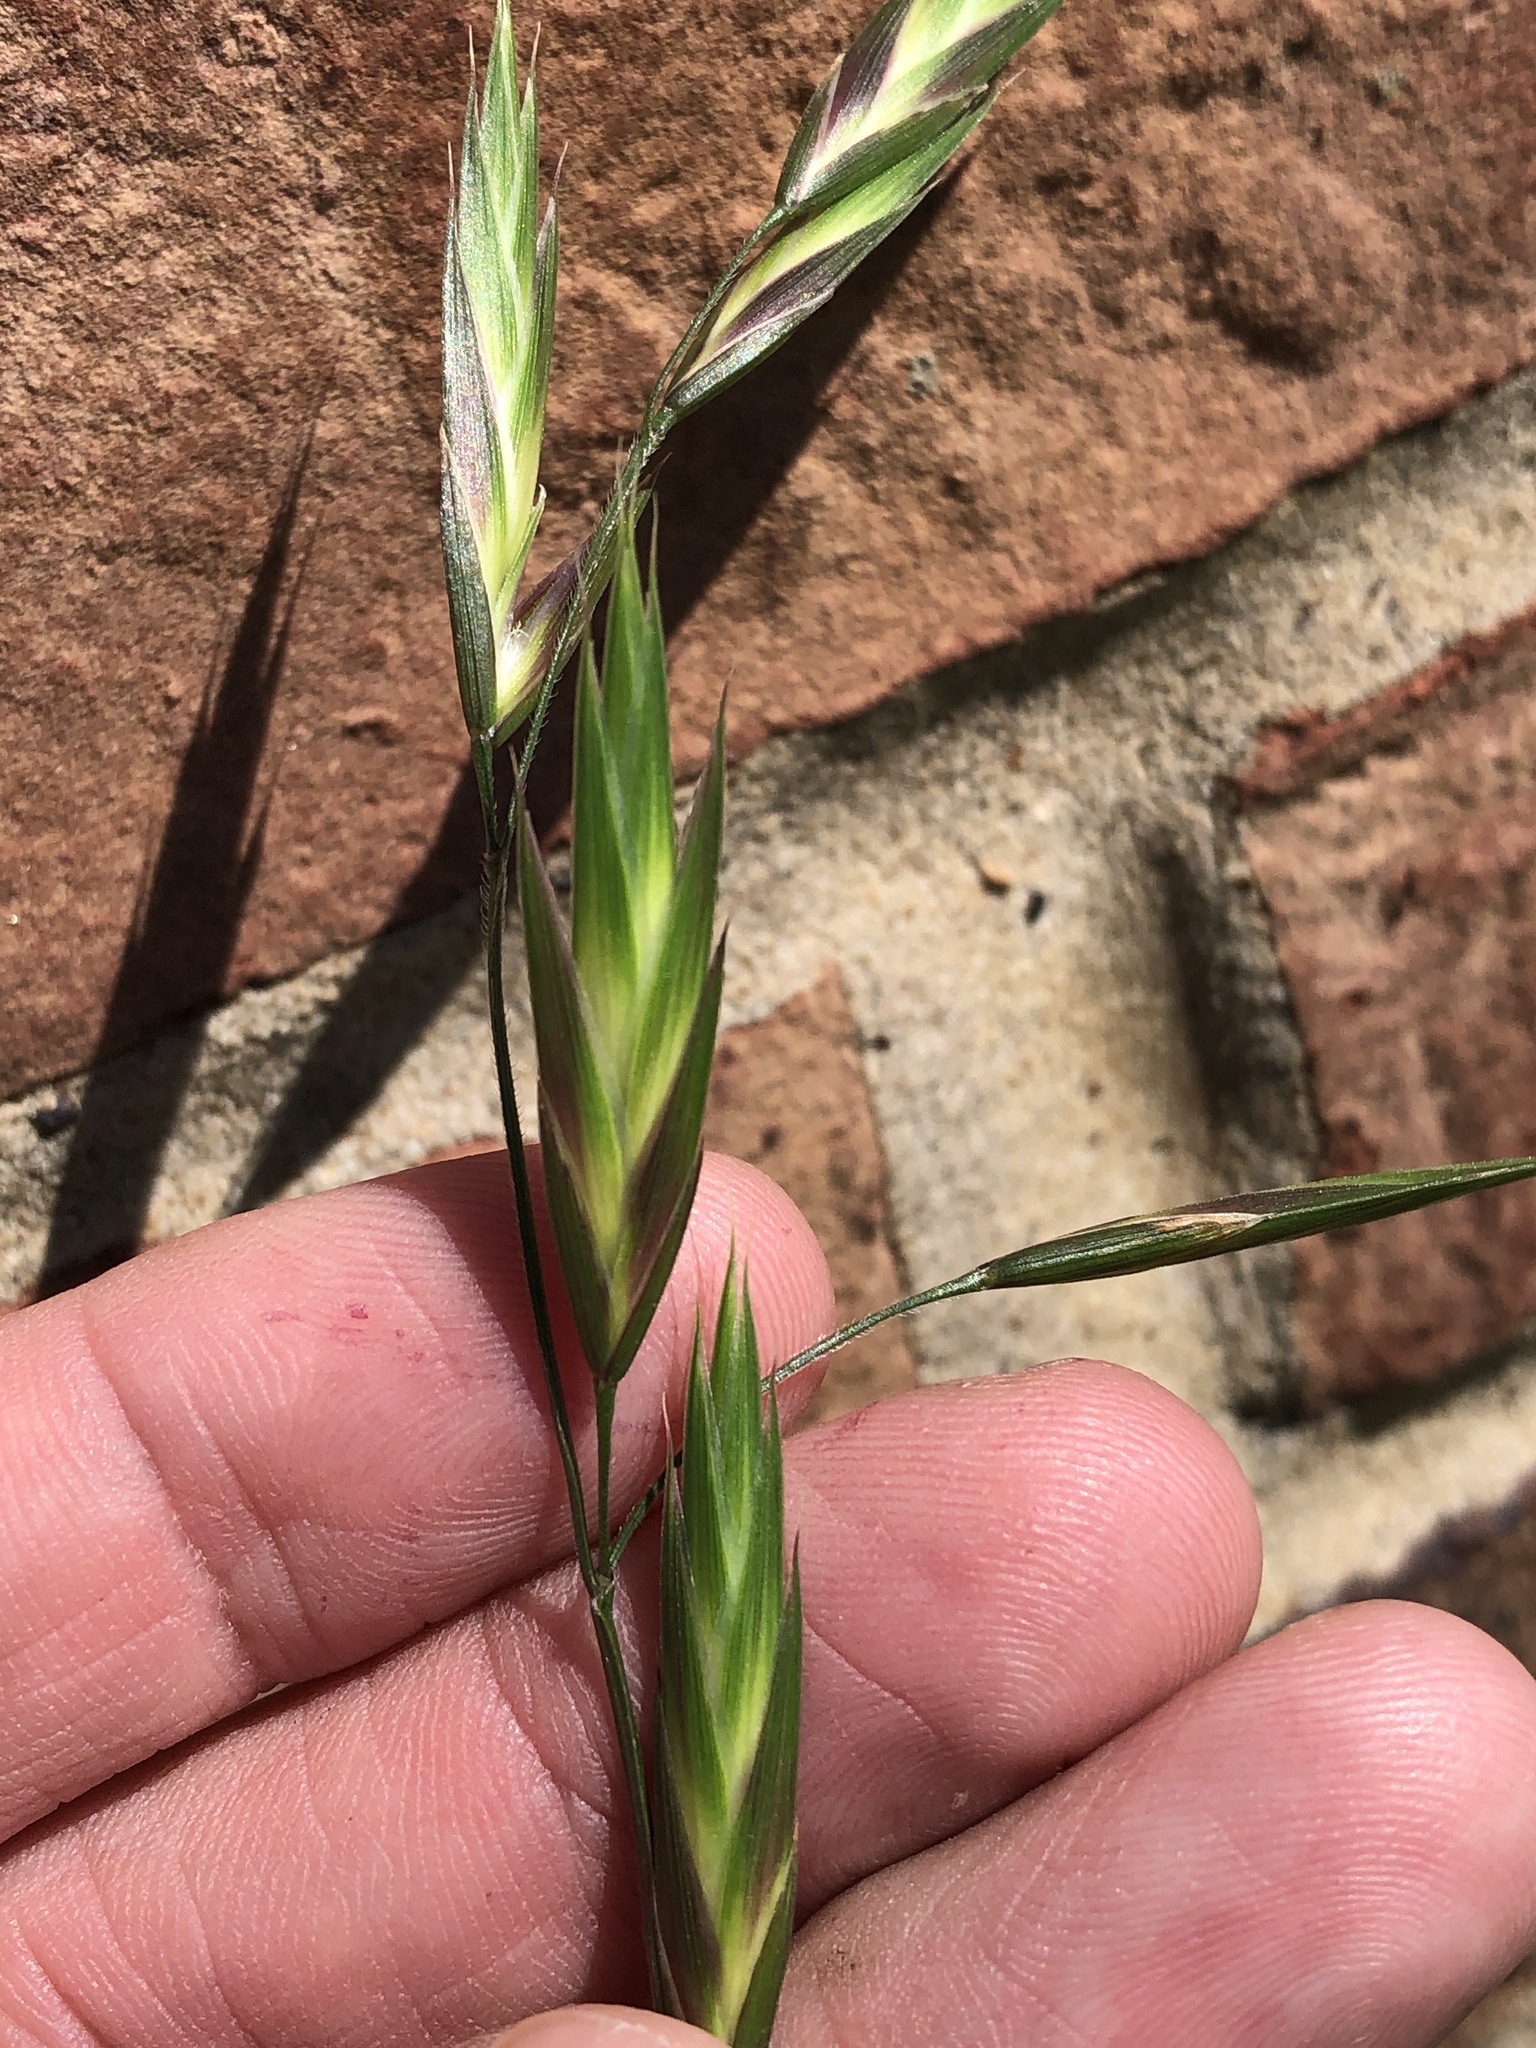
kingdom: Plantae
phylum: Tracheophyta
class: Liliopsida
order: Poales
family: Poaceae
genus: Bromus
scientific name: Bromus catharticus
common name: Rescuegrass
